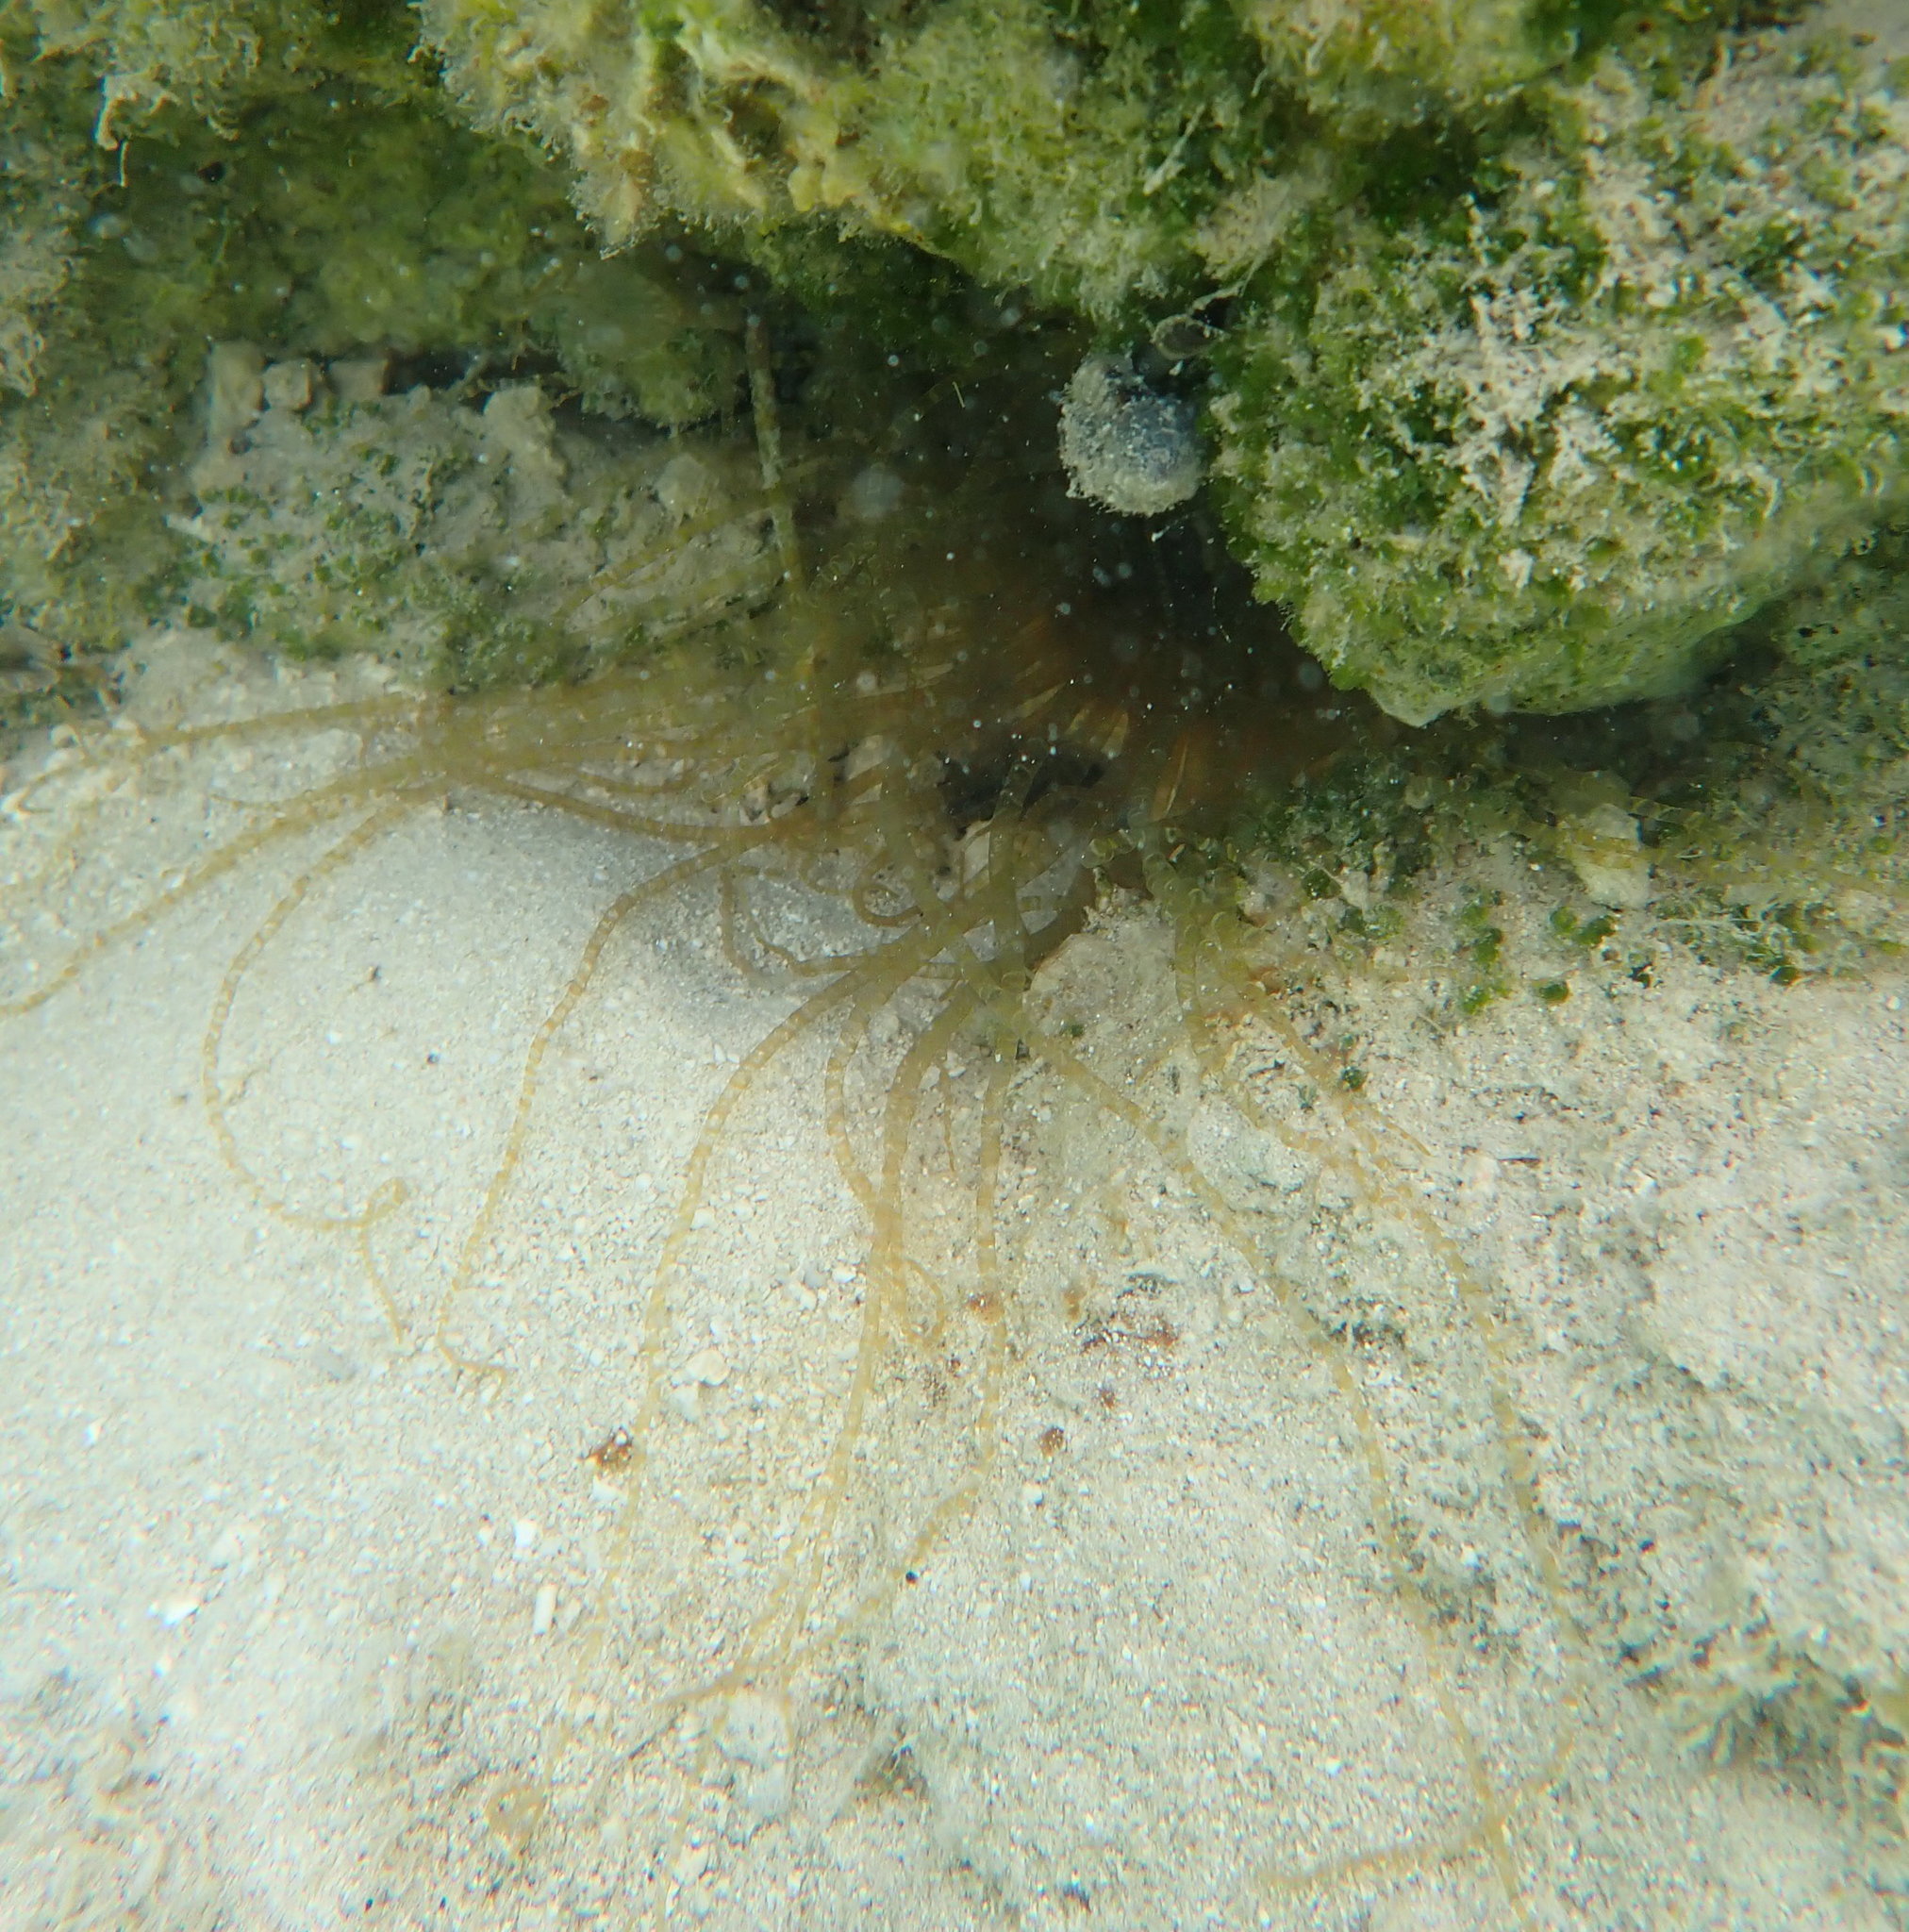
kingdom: Animalia
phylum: Cnidaria
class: Anthozoa
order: Actiniaria
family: Aiptasiidae
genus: Bartholomea
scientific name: Bartholomea annulata
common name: Corkscrew anemone
